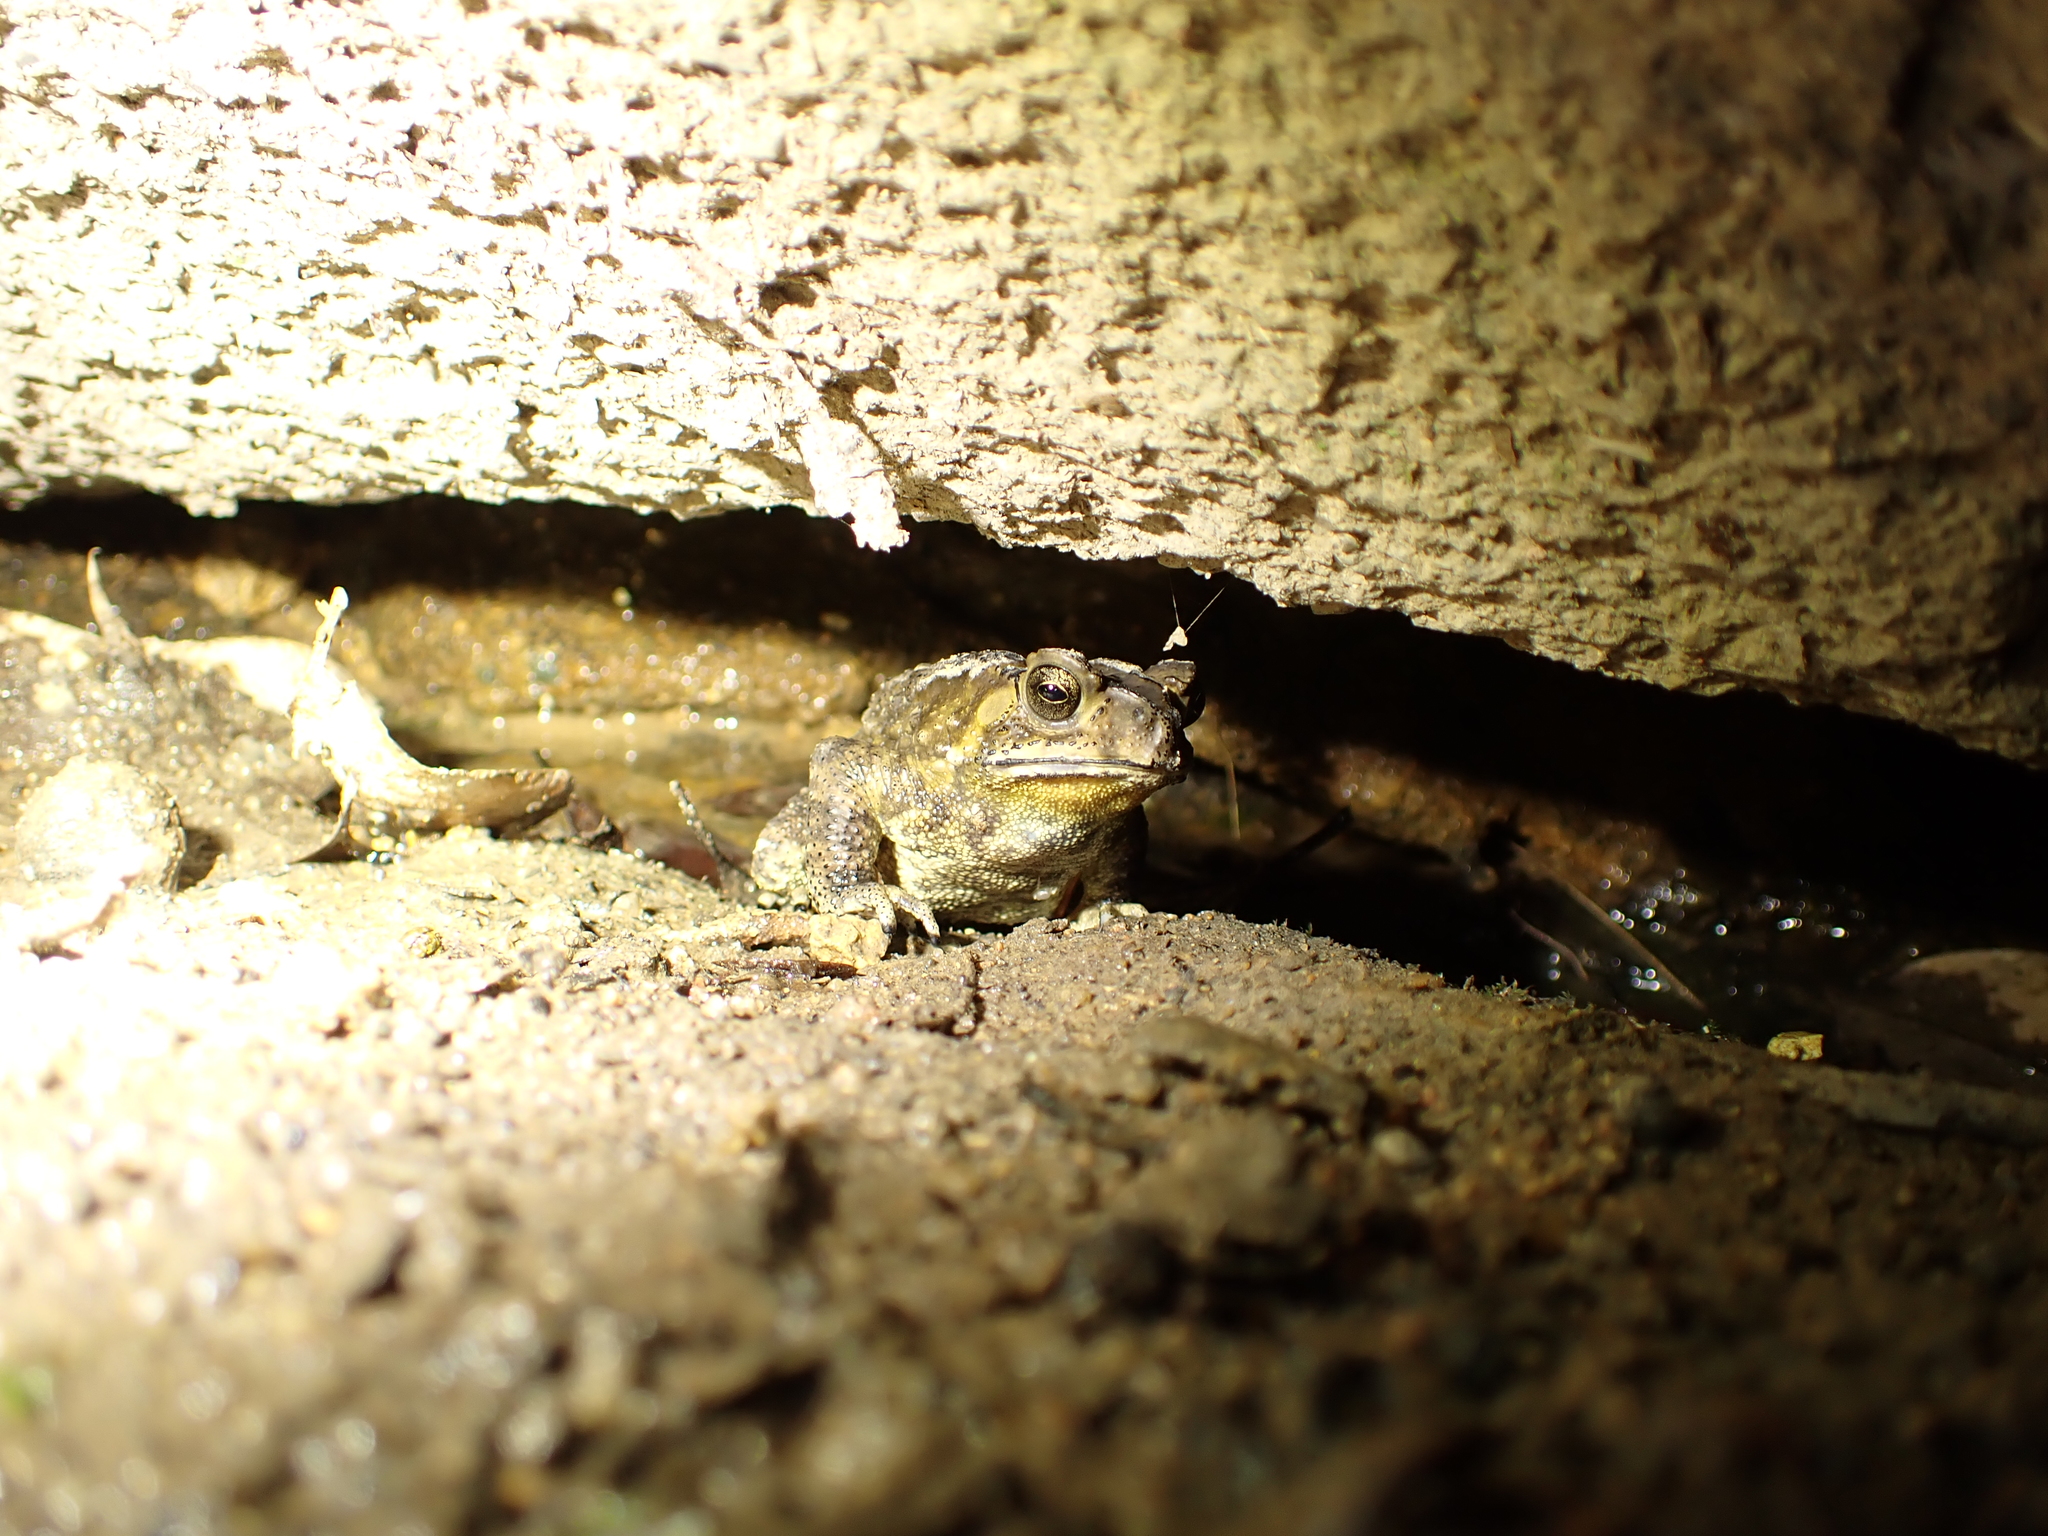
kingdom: Animalia
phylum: Chordata
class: Amphibia
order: Anura
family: Bufonidae
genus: Duttaphrynus
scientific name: Duttaphrynus melanostictus
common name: Common sunda toad
